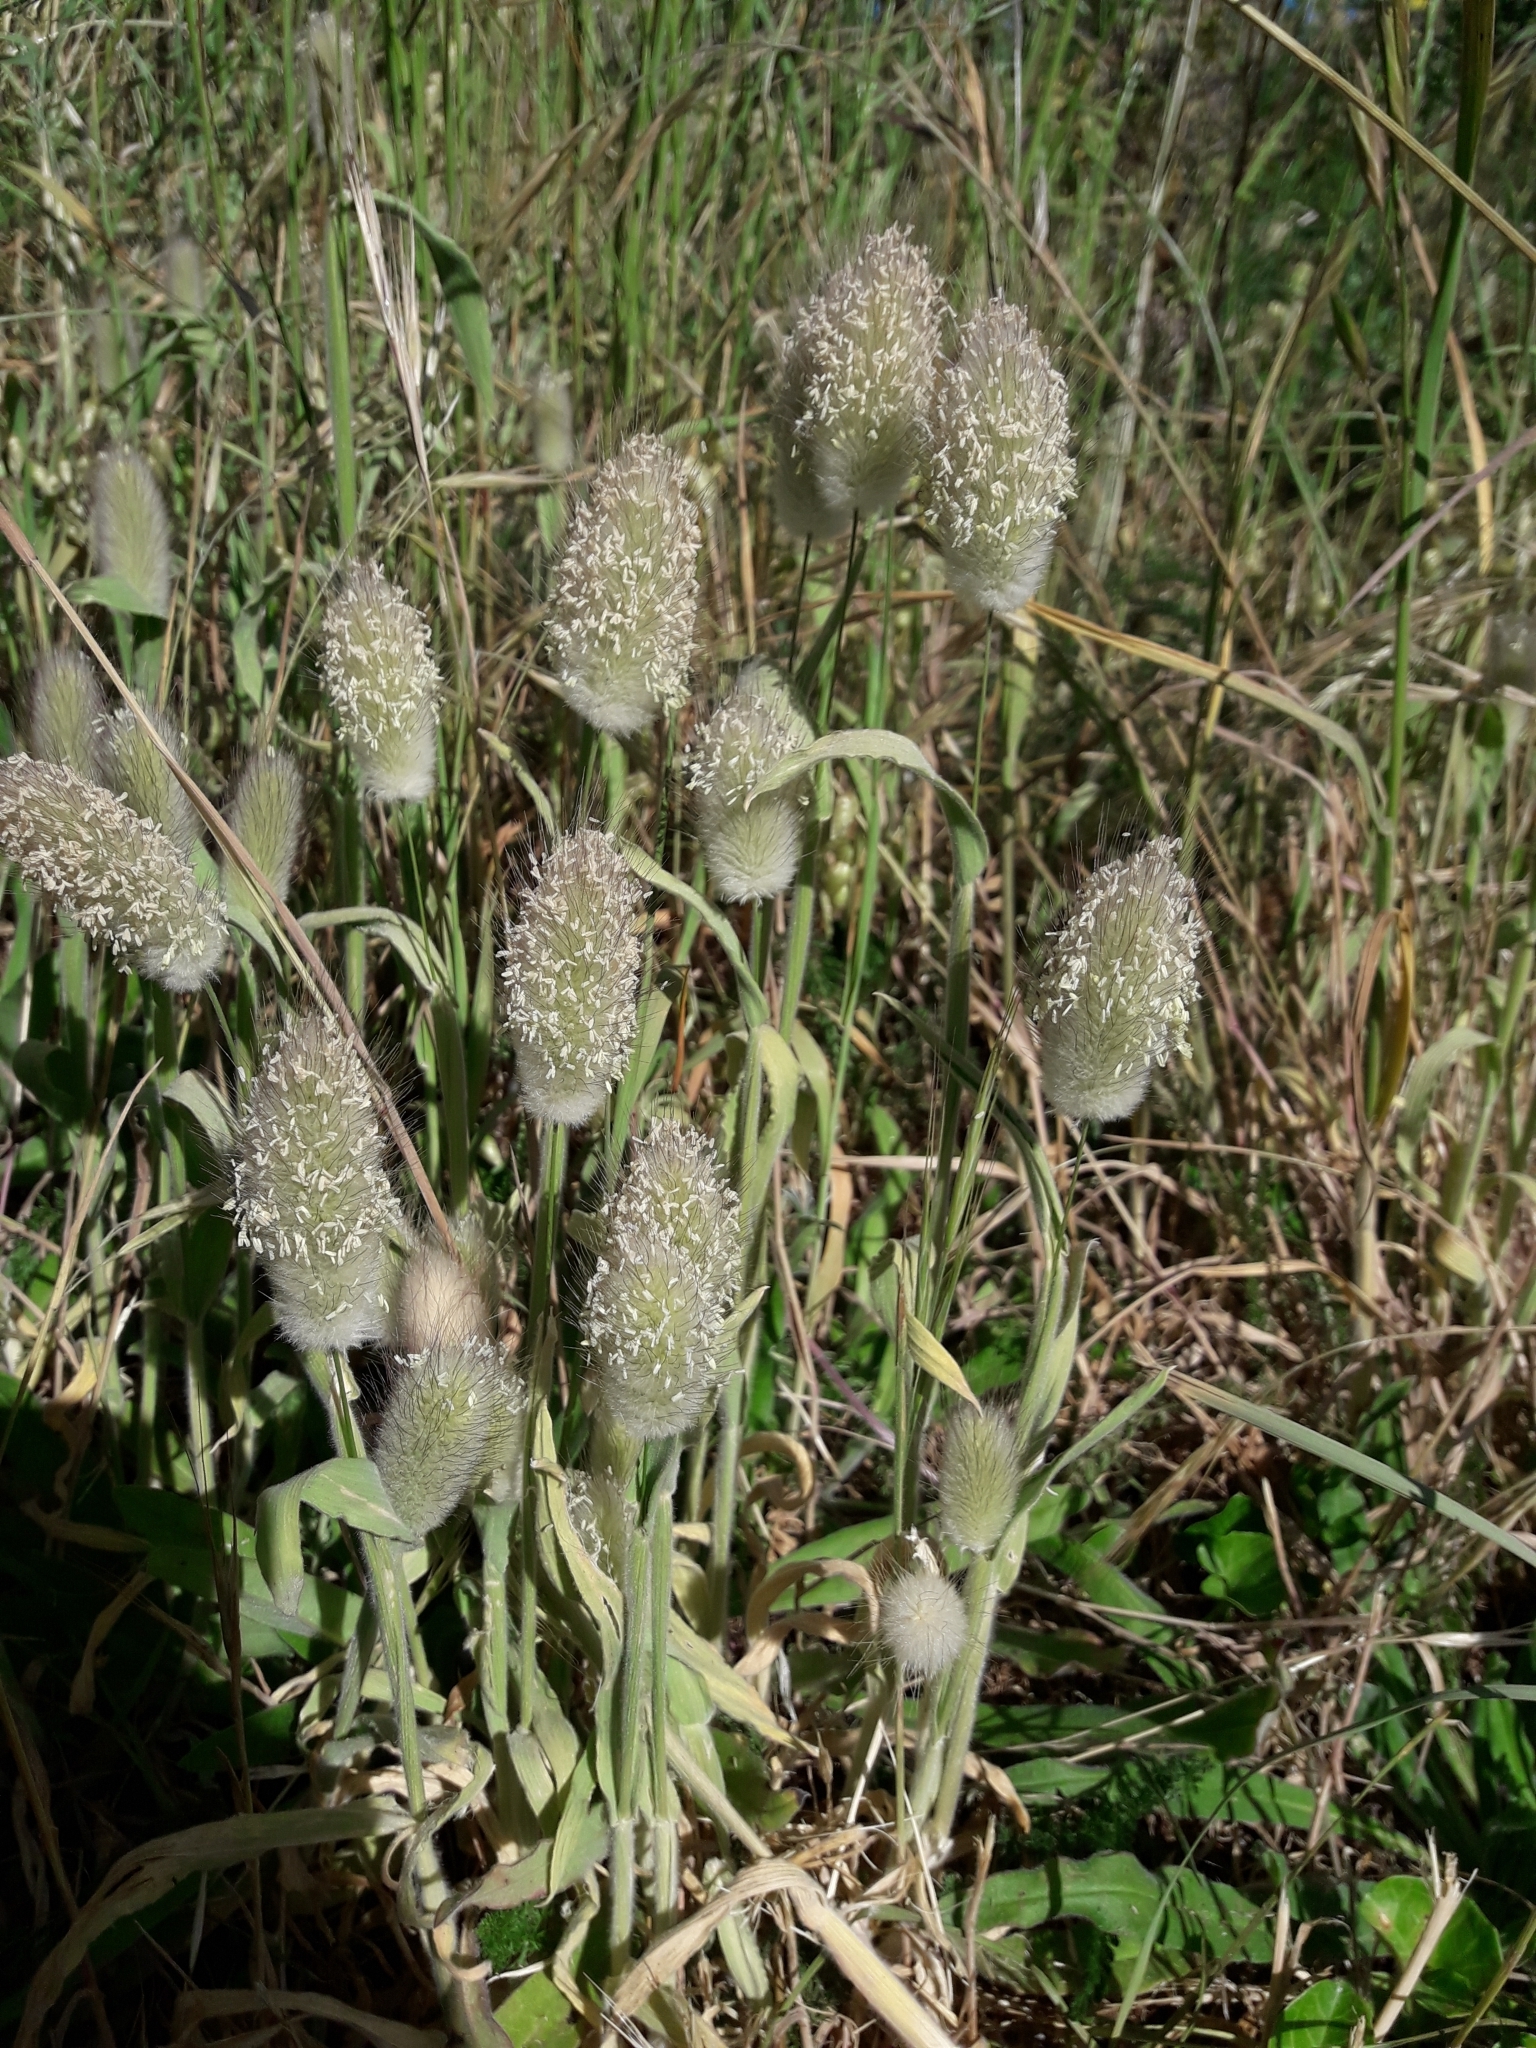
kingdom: Plantae
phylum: Tracheophyta
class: Liliopsida
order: Poales
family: Poaceae
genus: Lagurus
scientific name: Lagurus ovatus
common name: Hare's-tail
